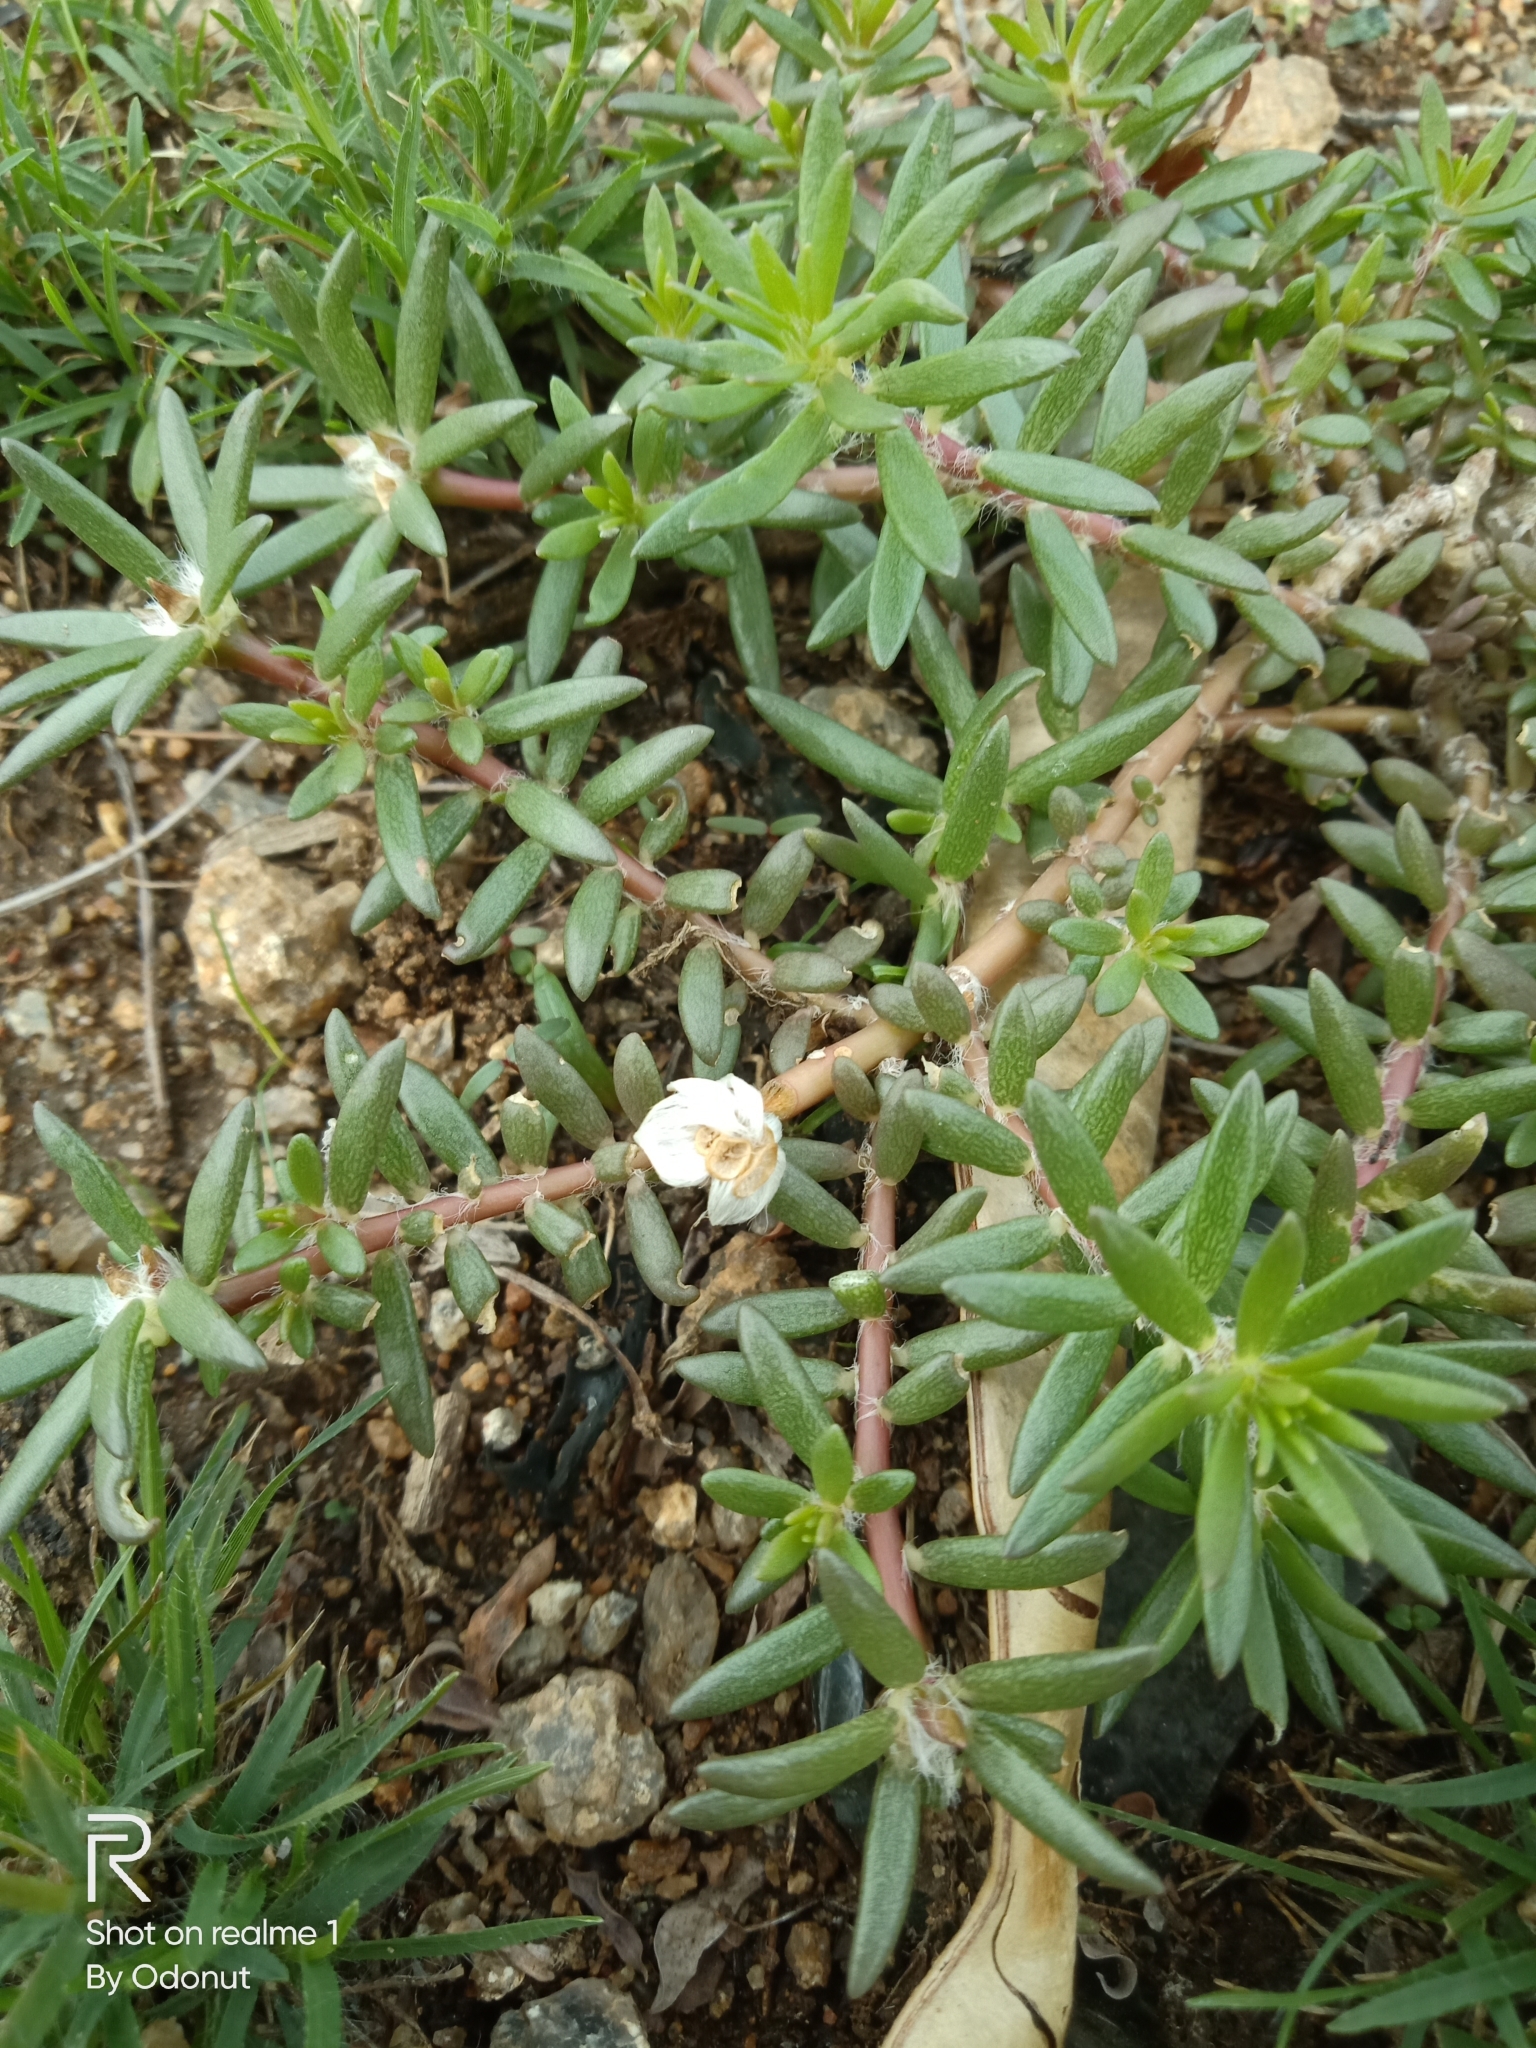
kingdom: Plantae
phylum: Tracheophyta
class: Magnoliopsida
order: Caryophyllales
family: Portulacaceae
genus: Portulaca
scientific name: Portulaca pilosa
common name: Kiss me quick
